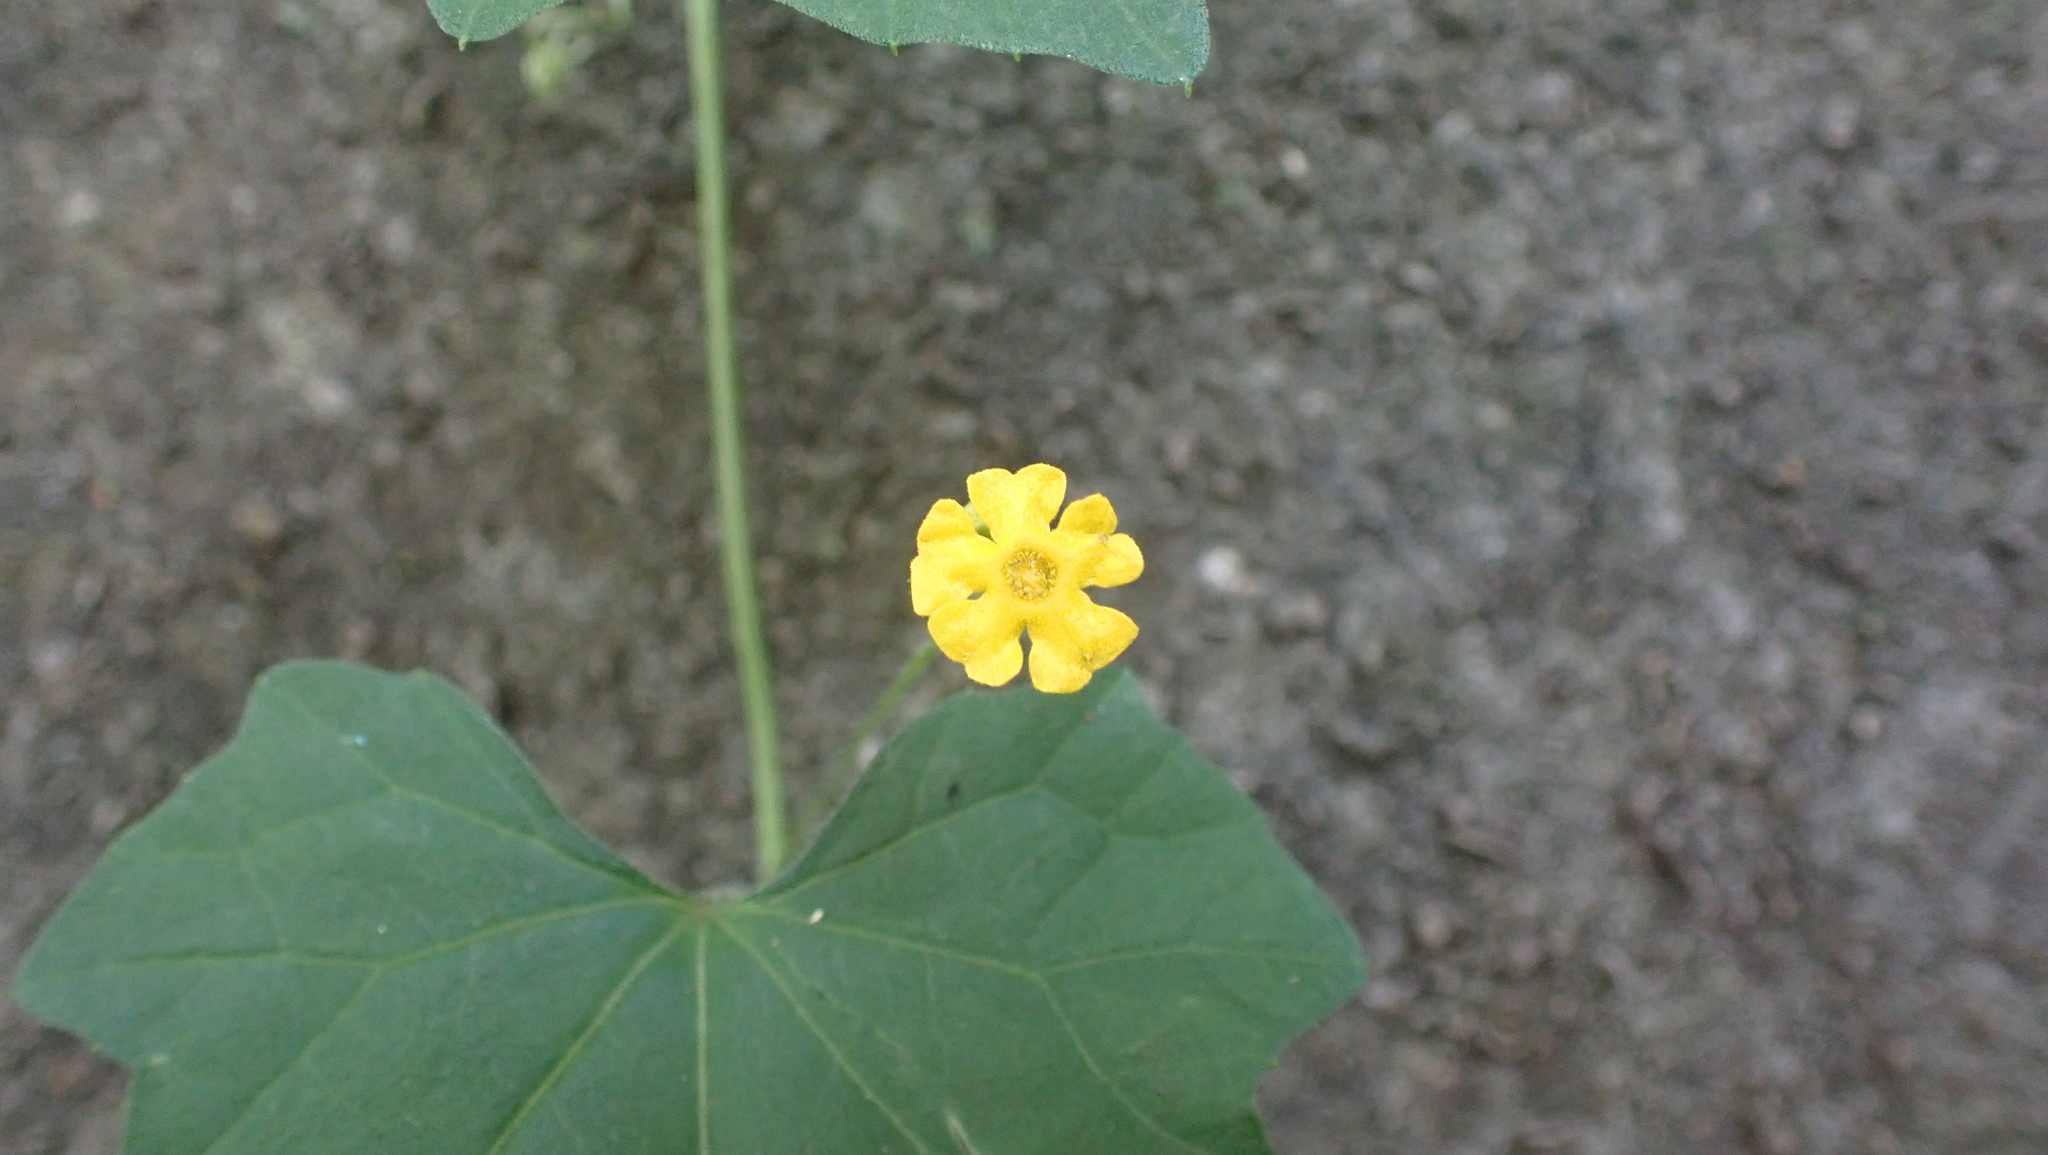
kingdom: Plantae
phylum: Tracheophyta
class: Magnoliopsida
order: Cucurbitales
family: Cucurbitaceae
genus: Melothria
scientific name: Melothria pendula
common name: Creeping-cucumber
